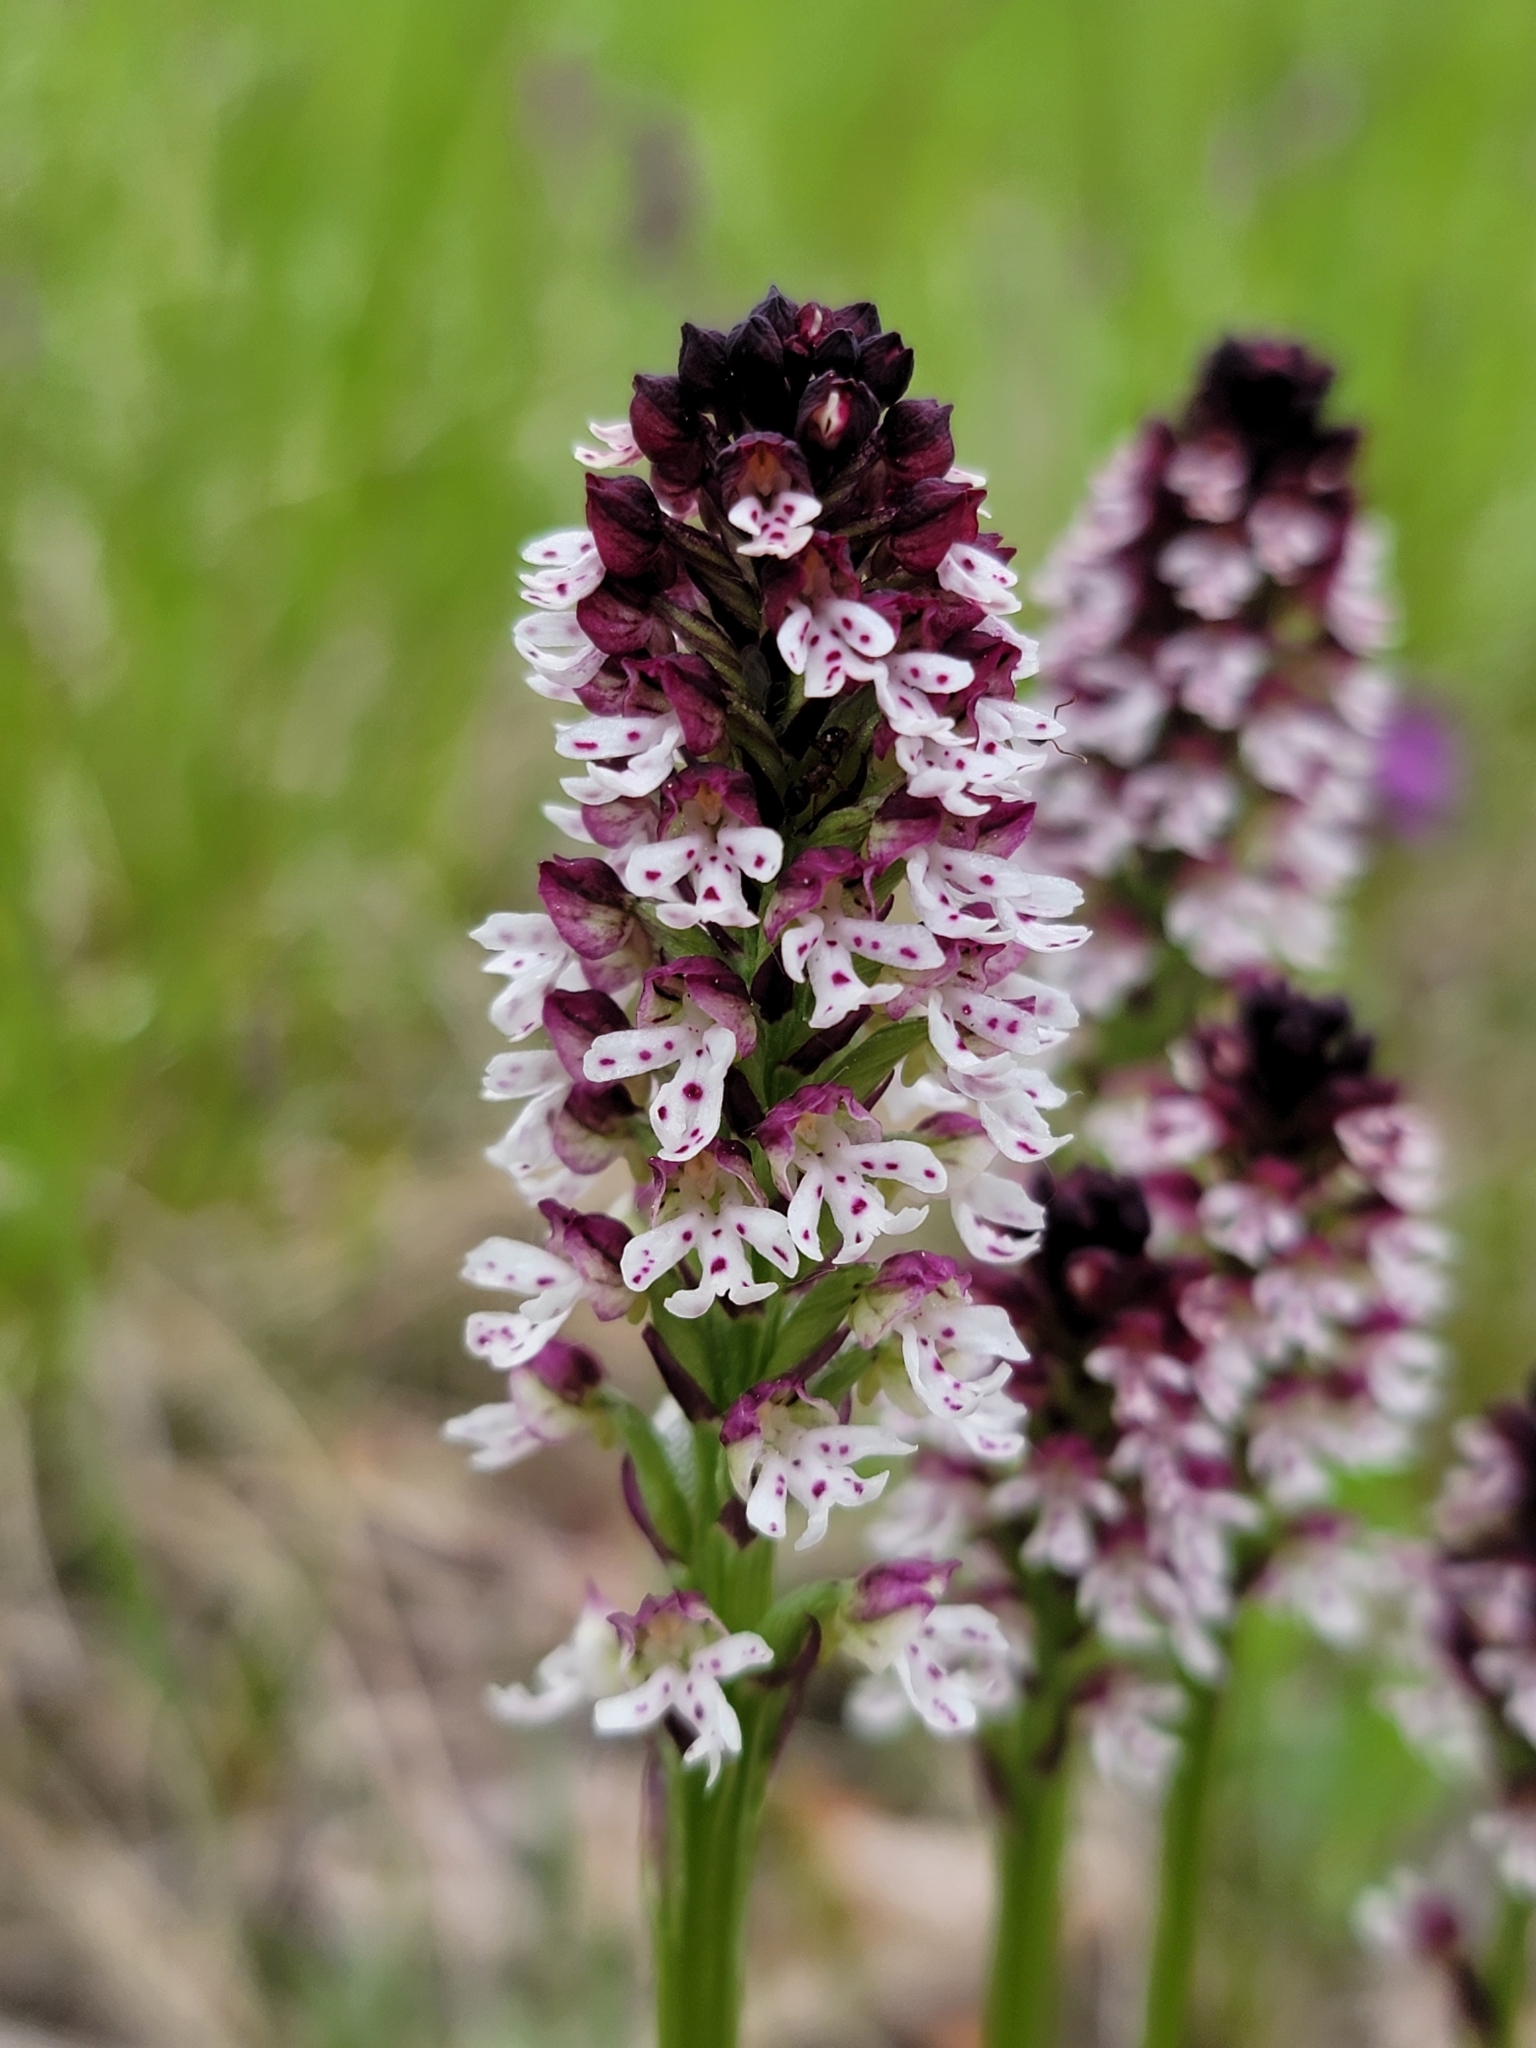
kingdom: Plantae
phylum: Tracheophyta
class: Liliopsida
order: Asparagales
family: Orchidaceae
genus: Neotinea
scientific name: Neotinea ustulata
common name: Burnt orchid
